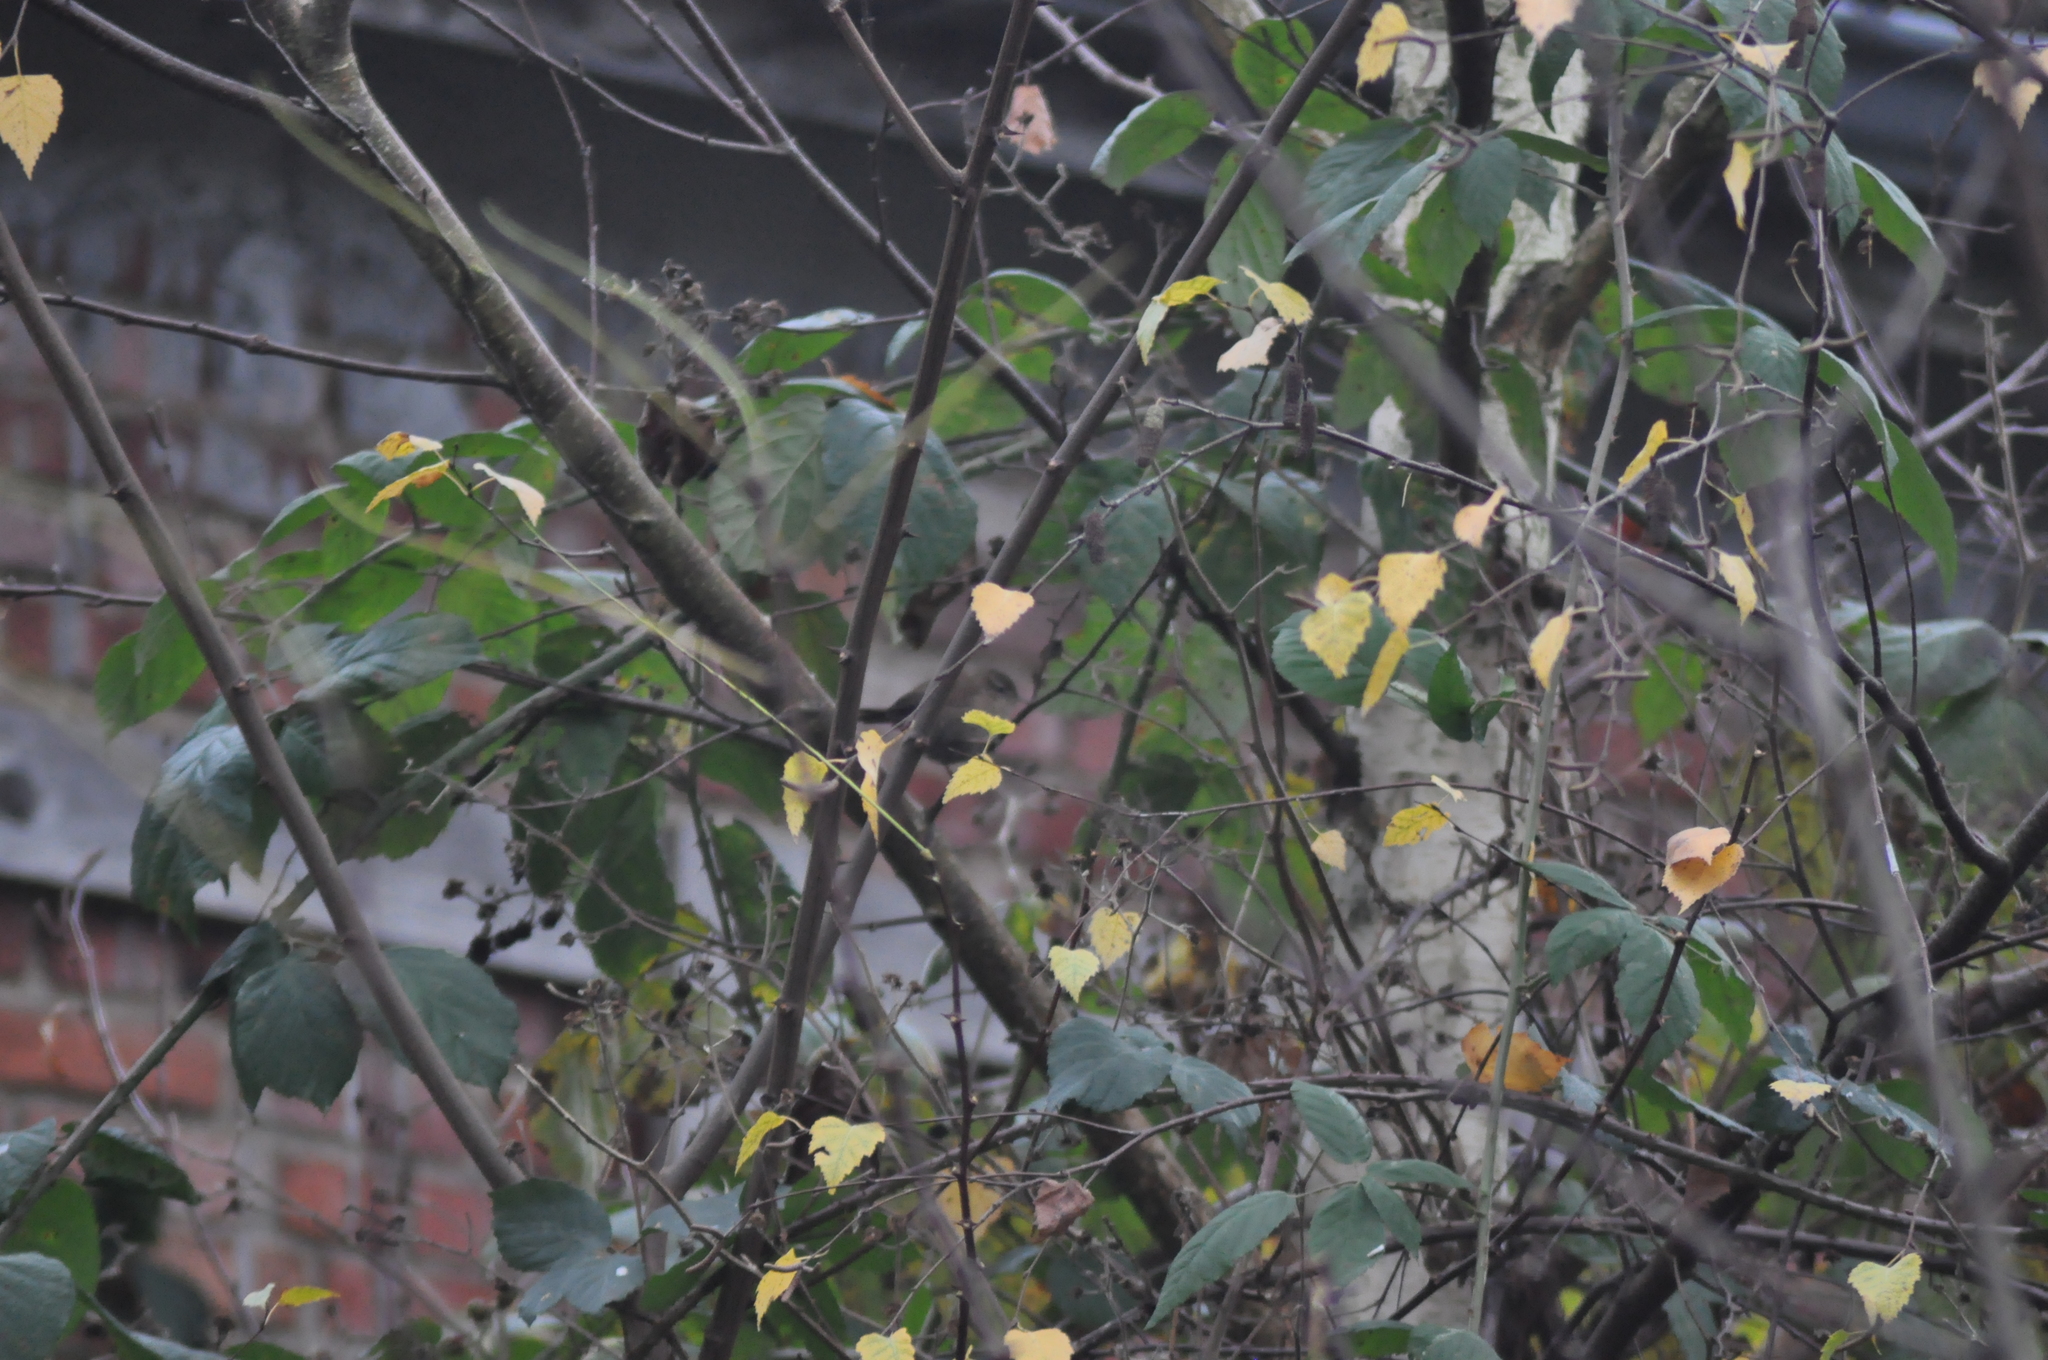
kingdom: Animalia
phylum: Chordata
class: Aves
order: Passeriformes
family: Troglodytidae
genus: Troglodytes
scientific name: Troglodytes troglodytes
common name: Eurasian wren
